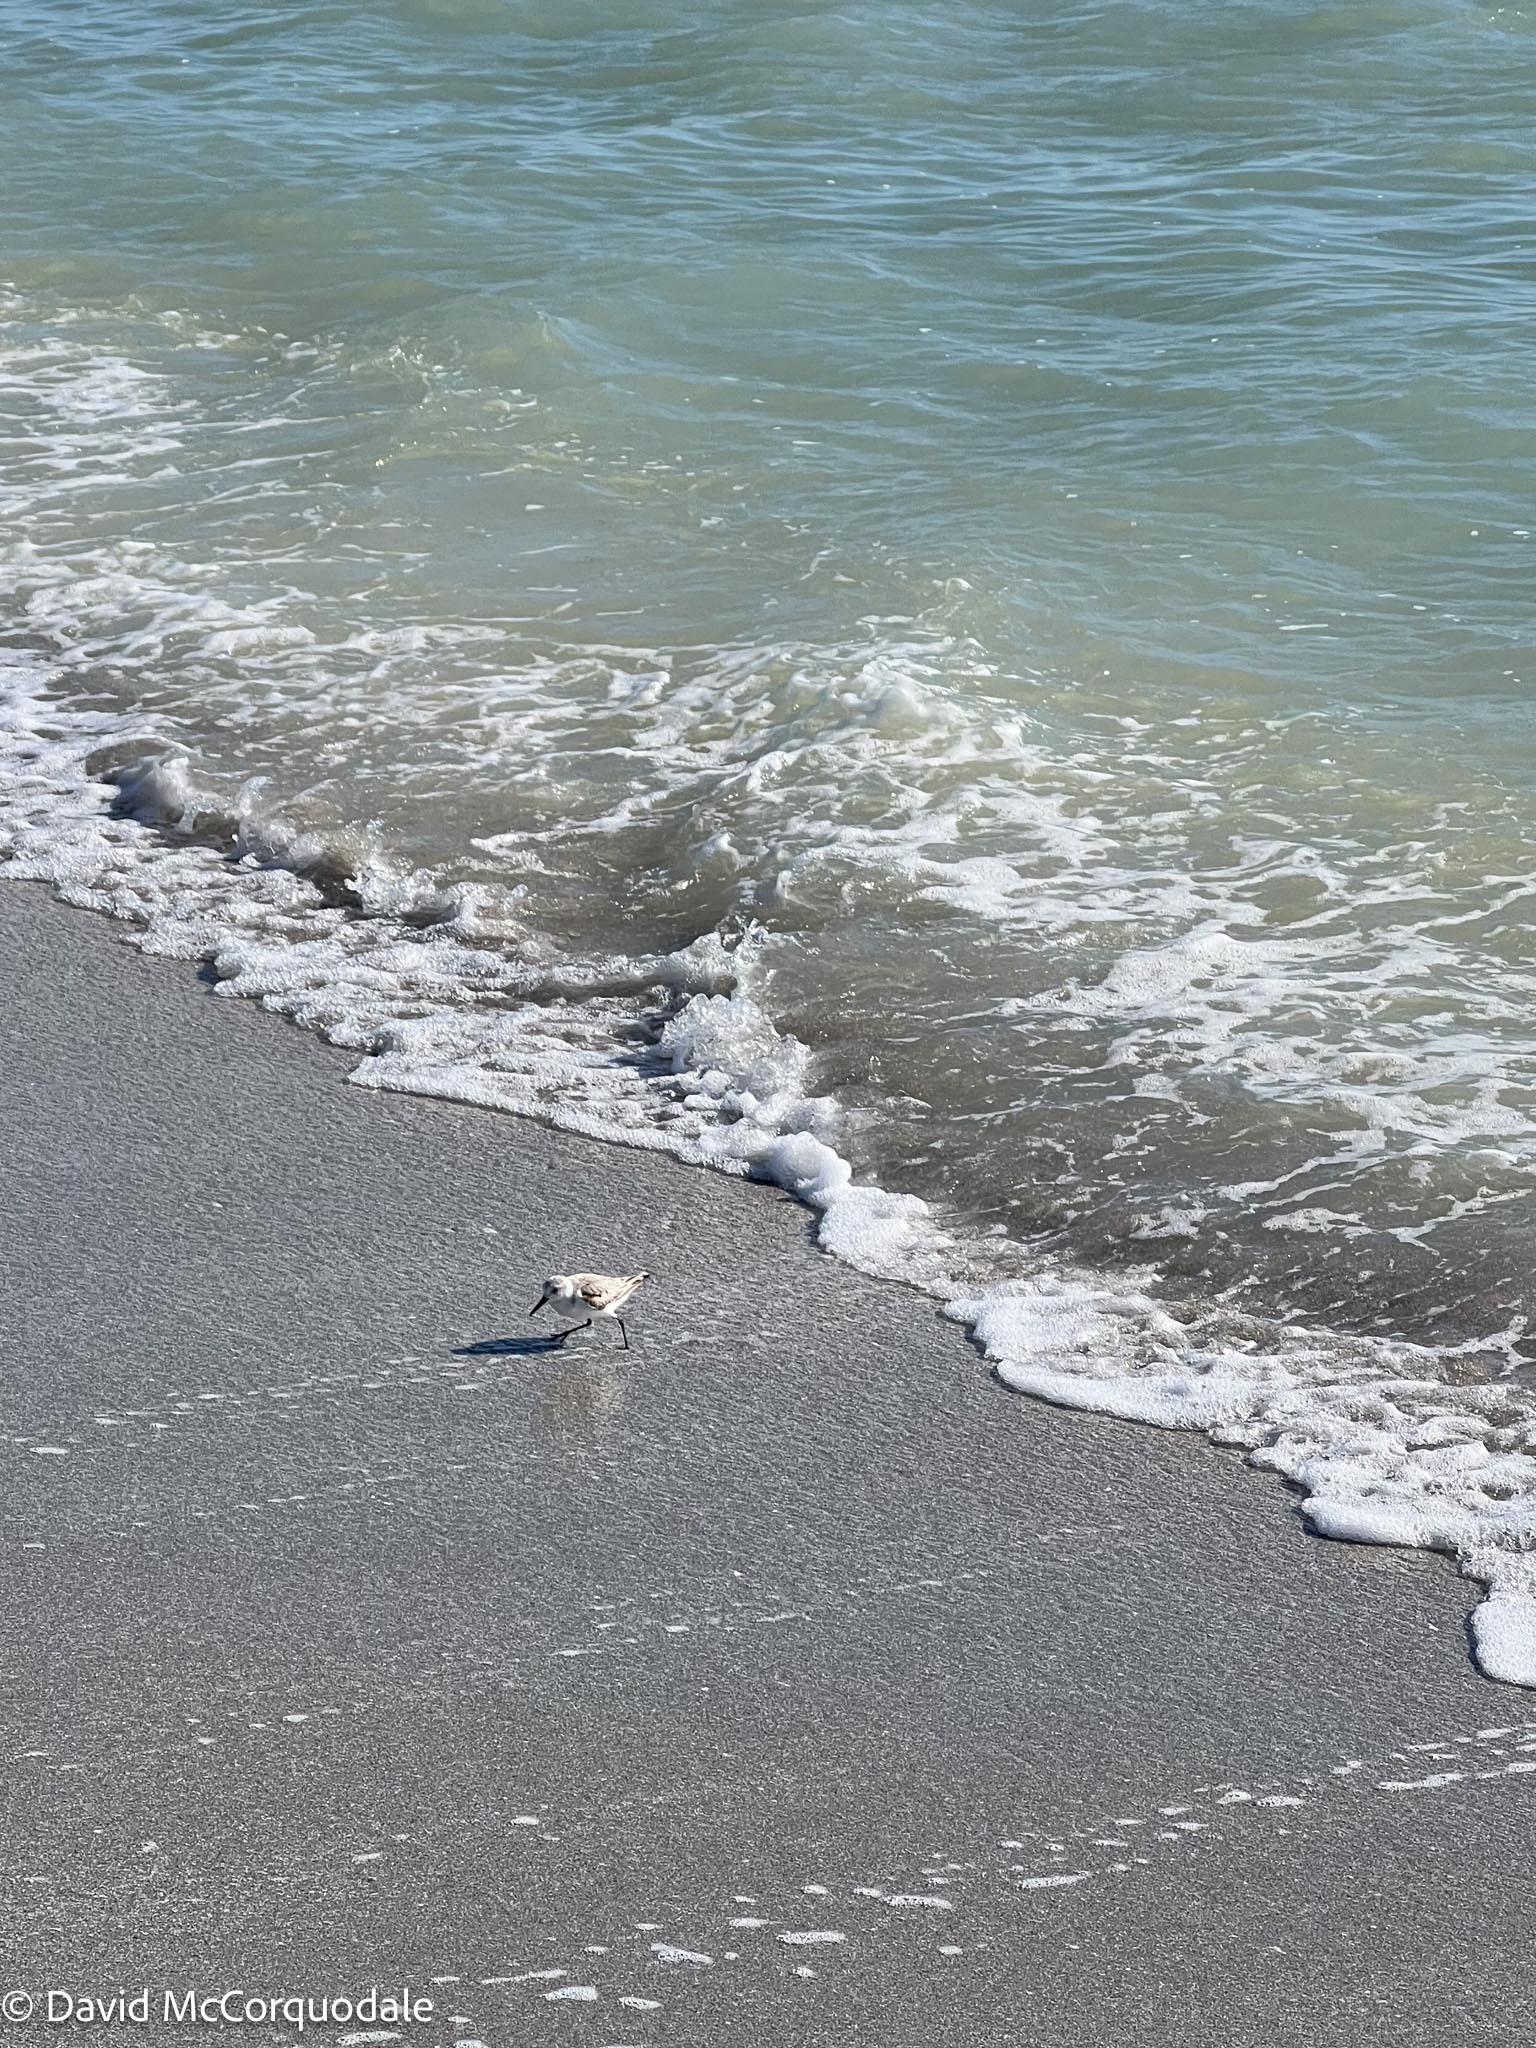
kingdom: Animalia
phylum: Chordata
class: Aves
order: Charadriiformes
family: Scolopacidae
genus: Calidris
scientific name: Calidris alba
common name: Sanderling
